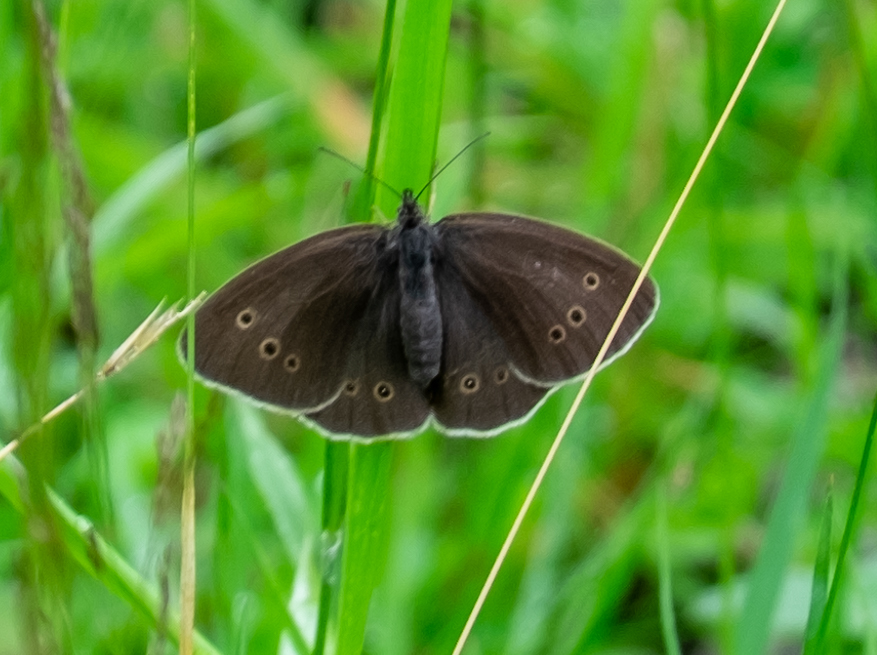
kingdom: Animalia
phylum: Arthropoda
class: Insecta
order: Lepidoptera
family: Nymphalidae
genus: Aphantopus
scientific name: Aphantopus hyperantus
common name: Ringlet
